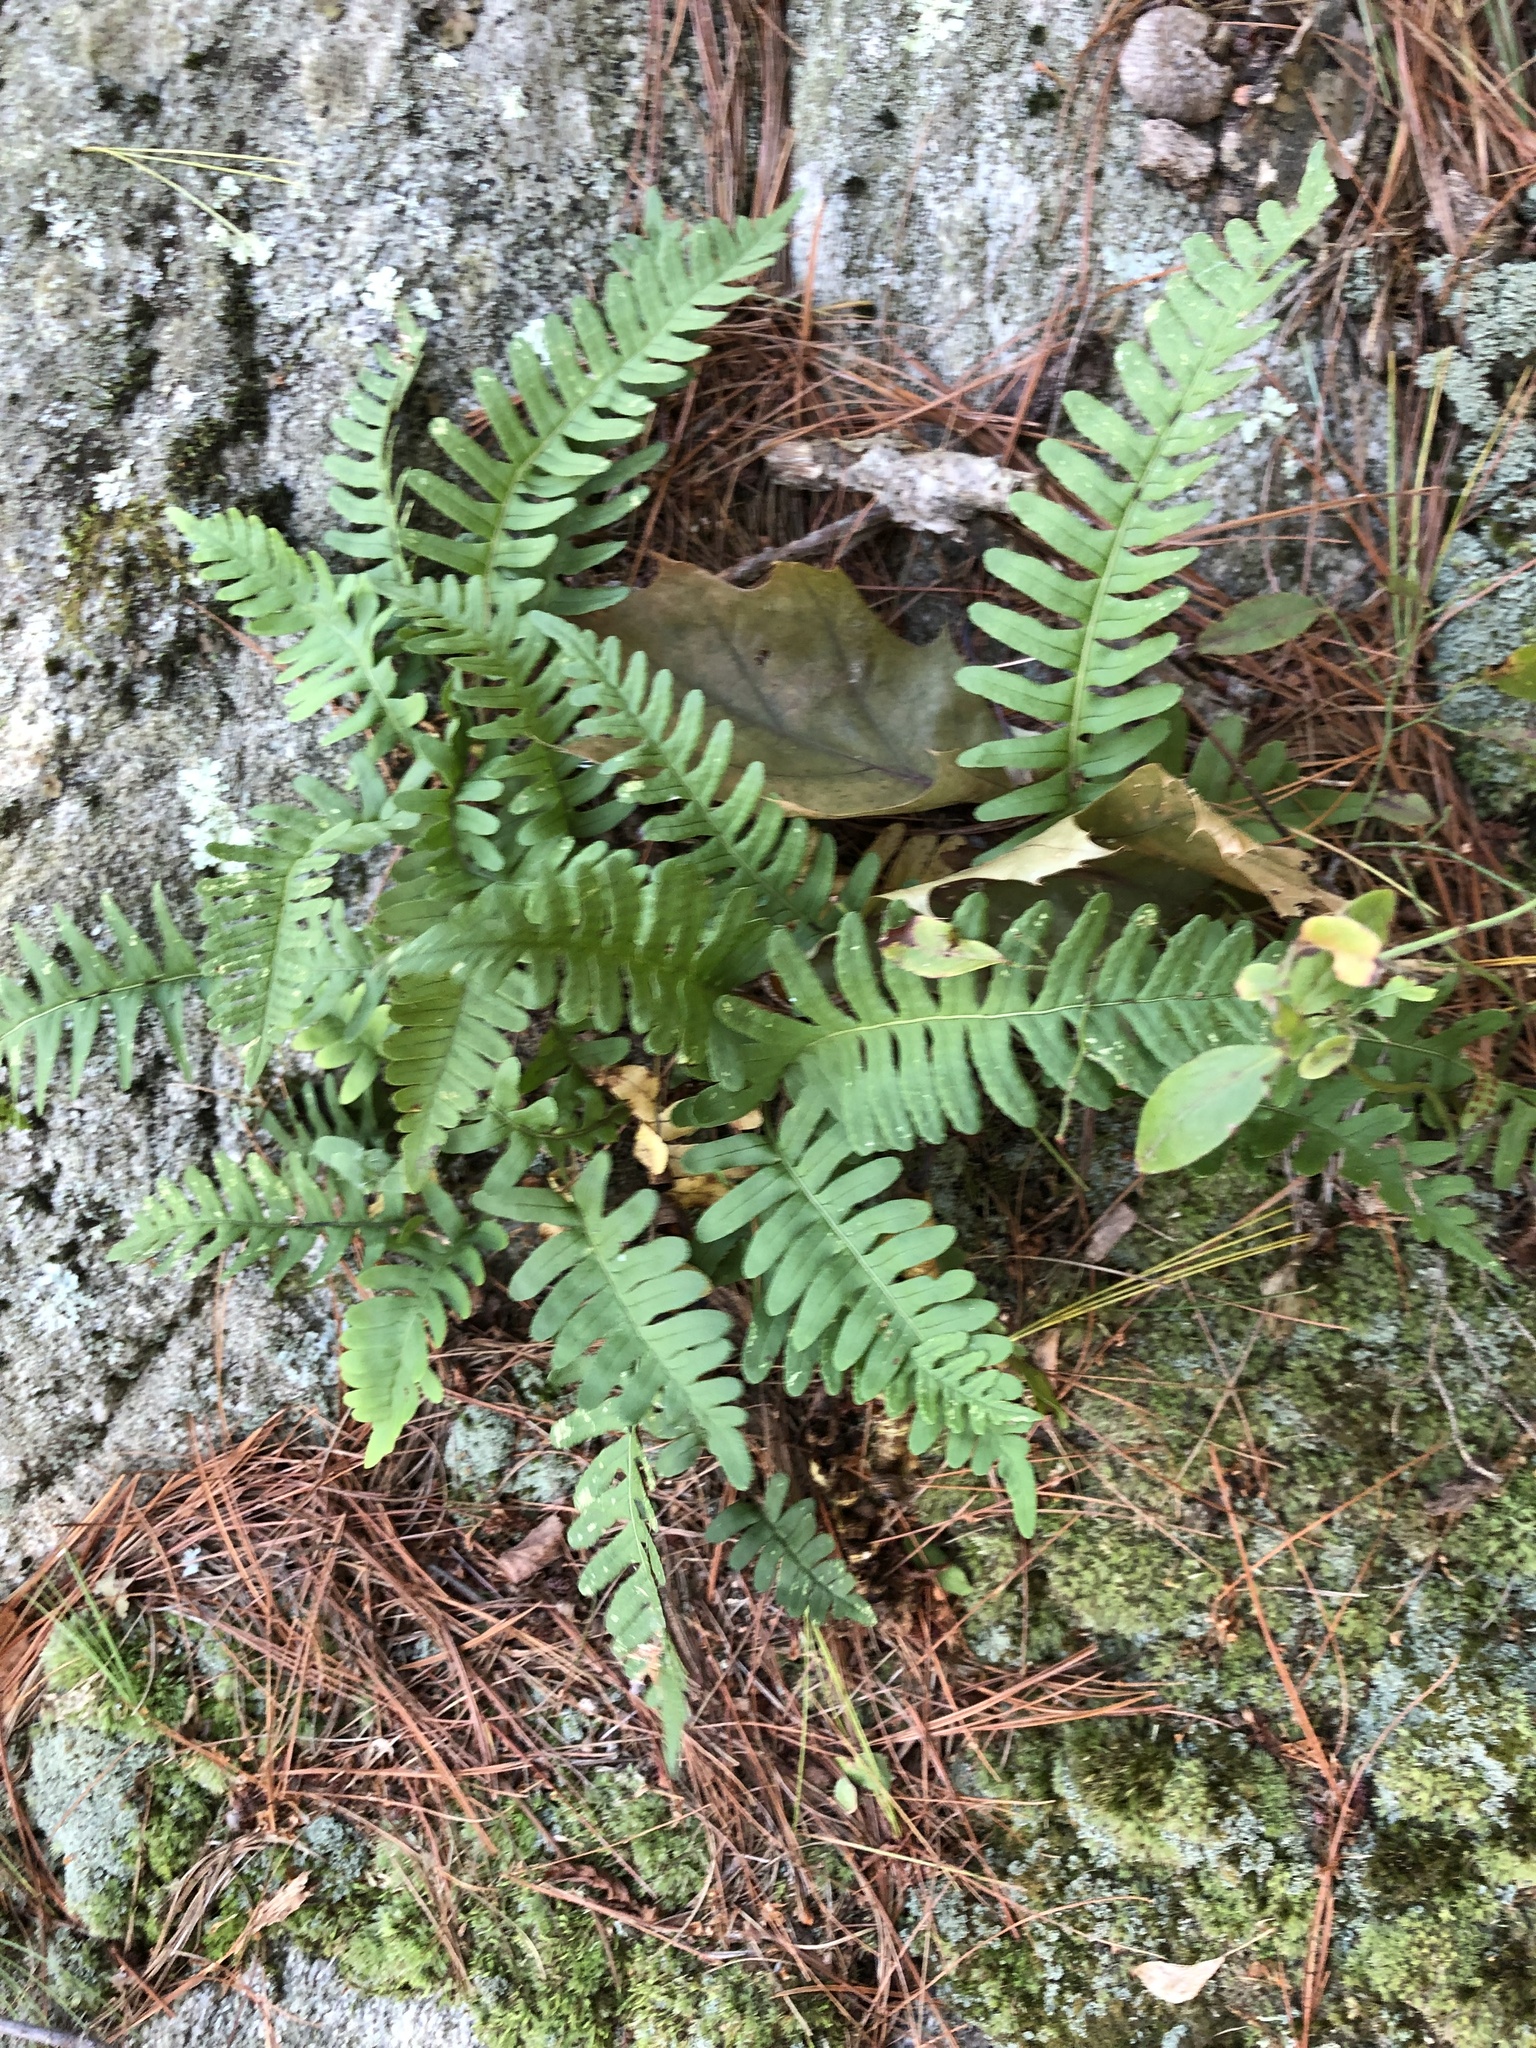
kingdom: Plantae
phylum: Tracheophyta
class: Polypodiopsida
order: Polypodiales
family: Polypodiaceae
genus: Polypodium
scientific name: Polypodium virginianum
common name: American wall fern
